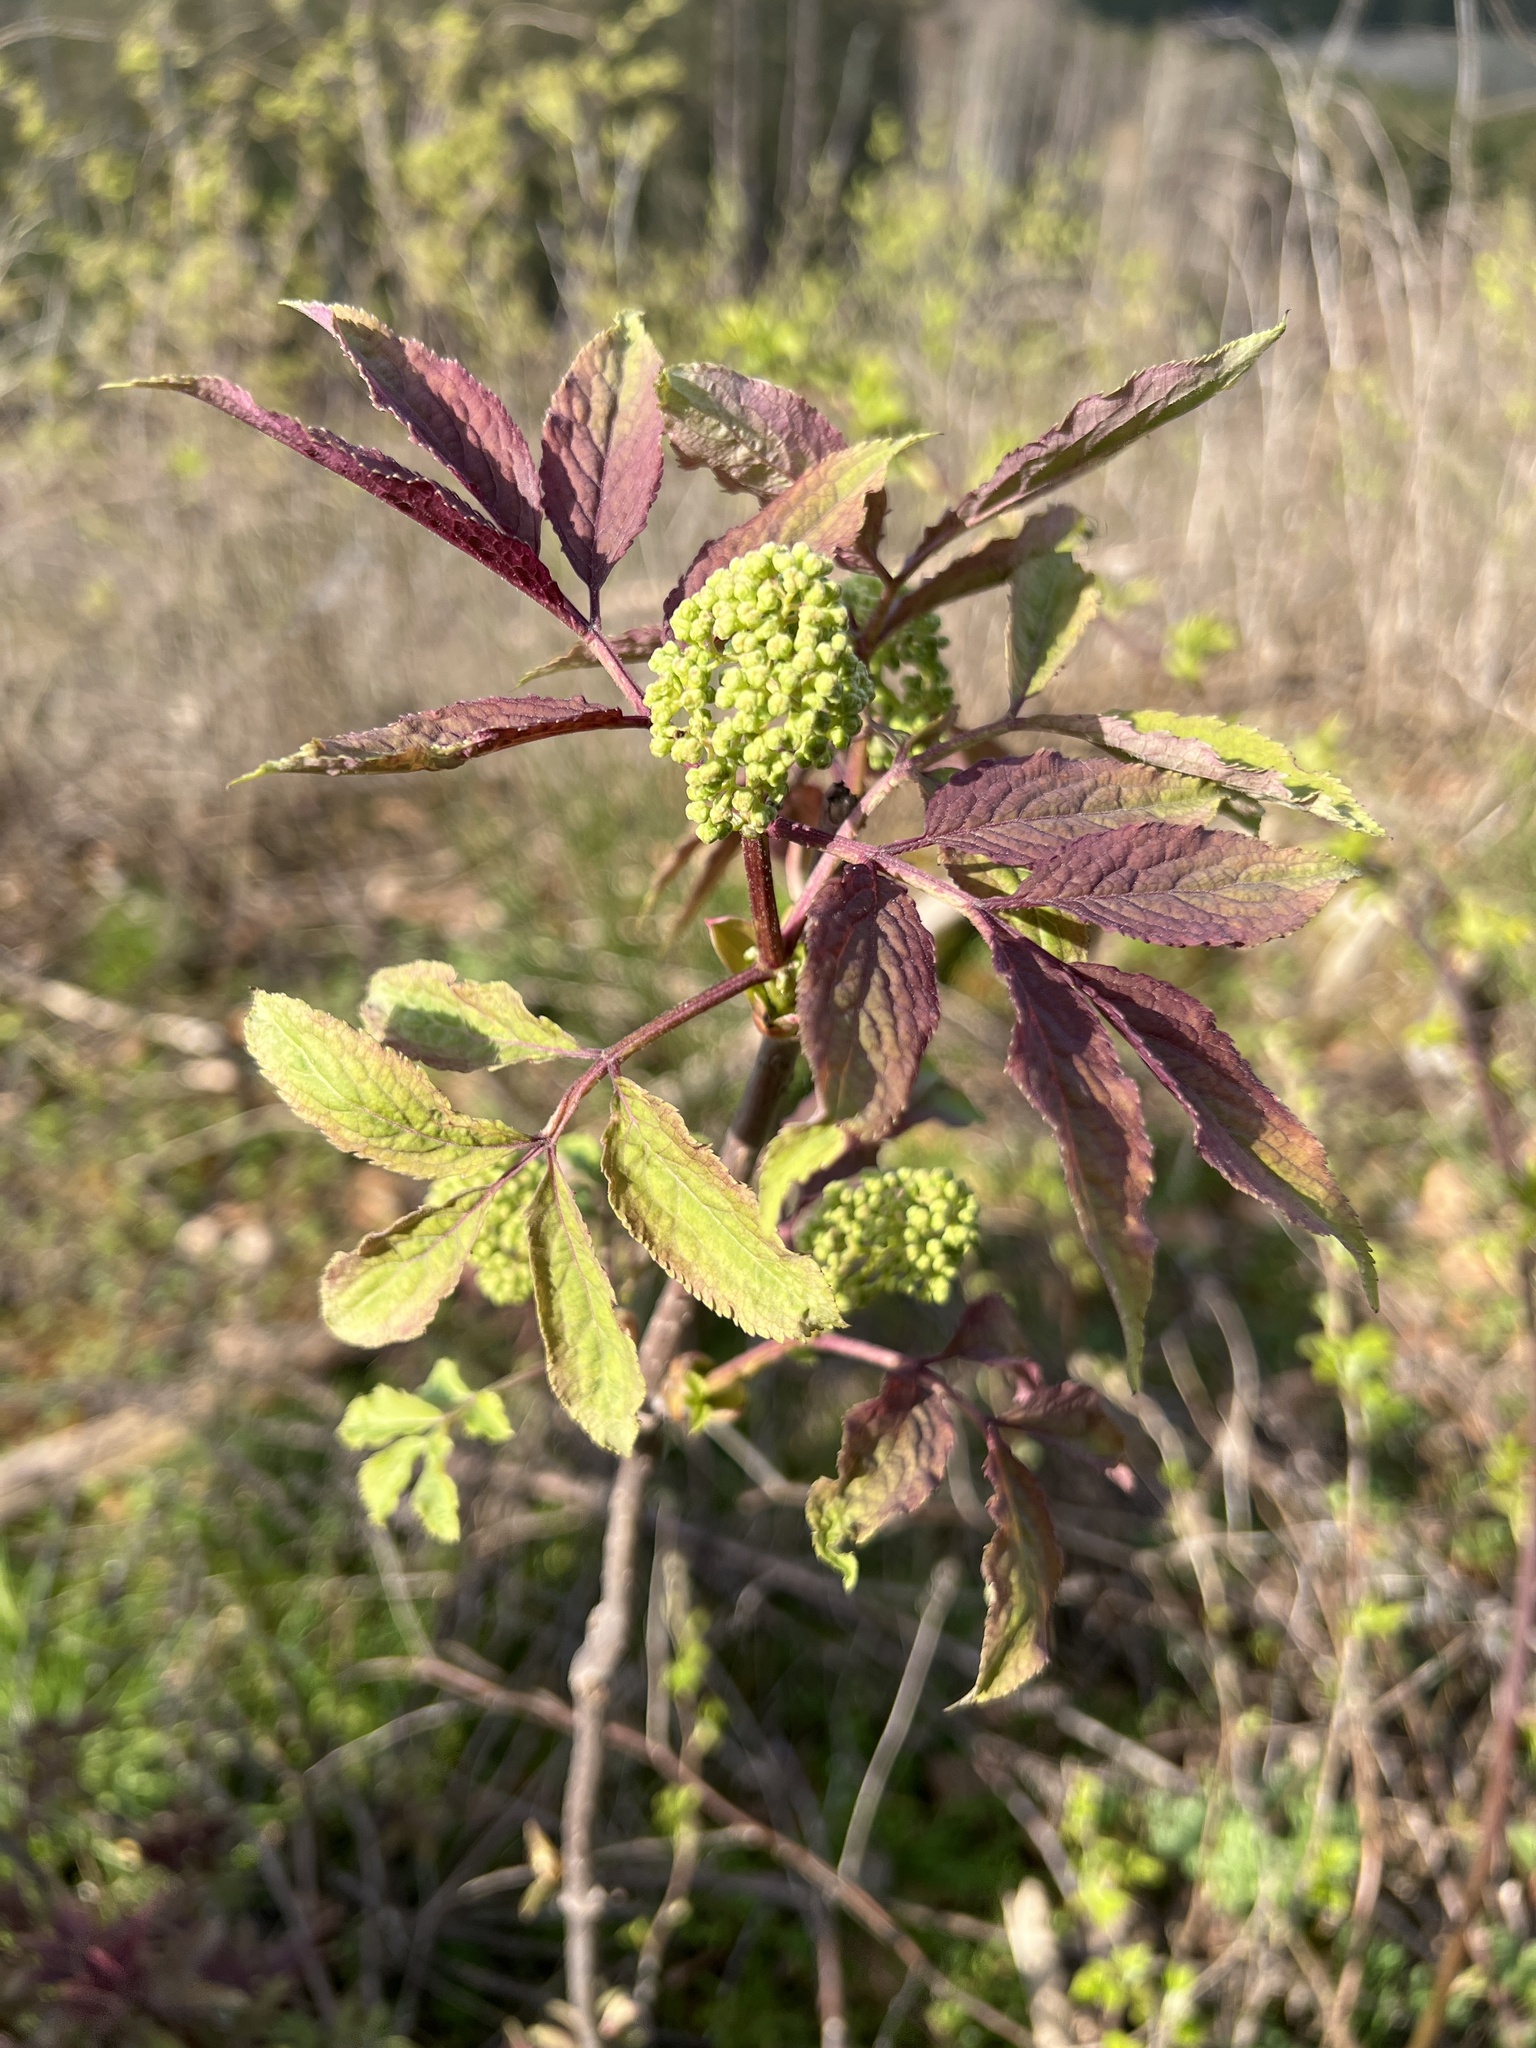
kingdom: Plantae
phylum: Tracheophyta
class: Magnoliopsida
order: Dipsacales
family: Viburnaceae
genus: Sambucus
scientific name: Sambucus racemosa
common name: Red-berried elder
